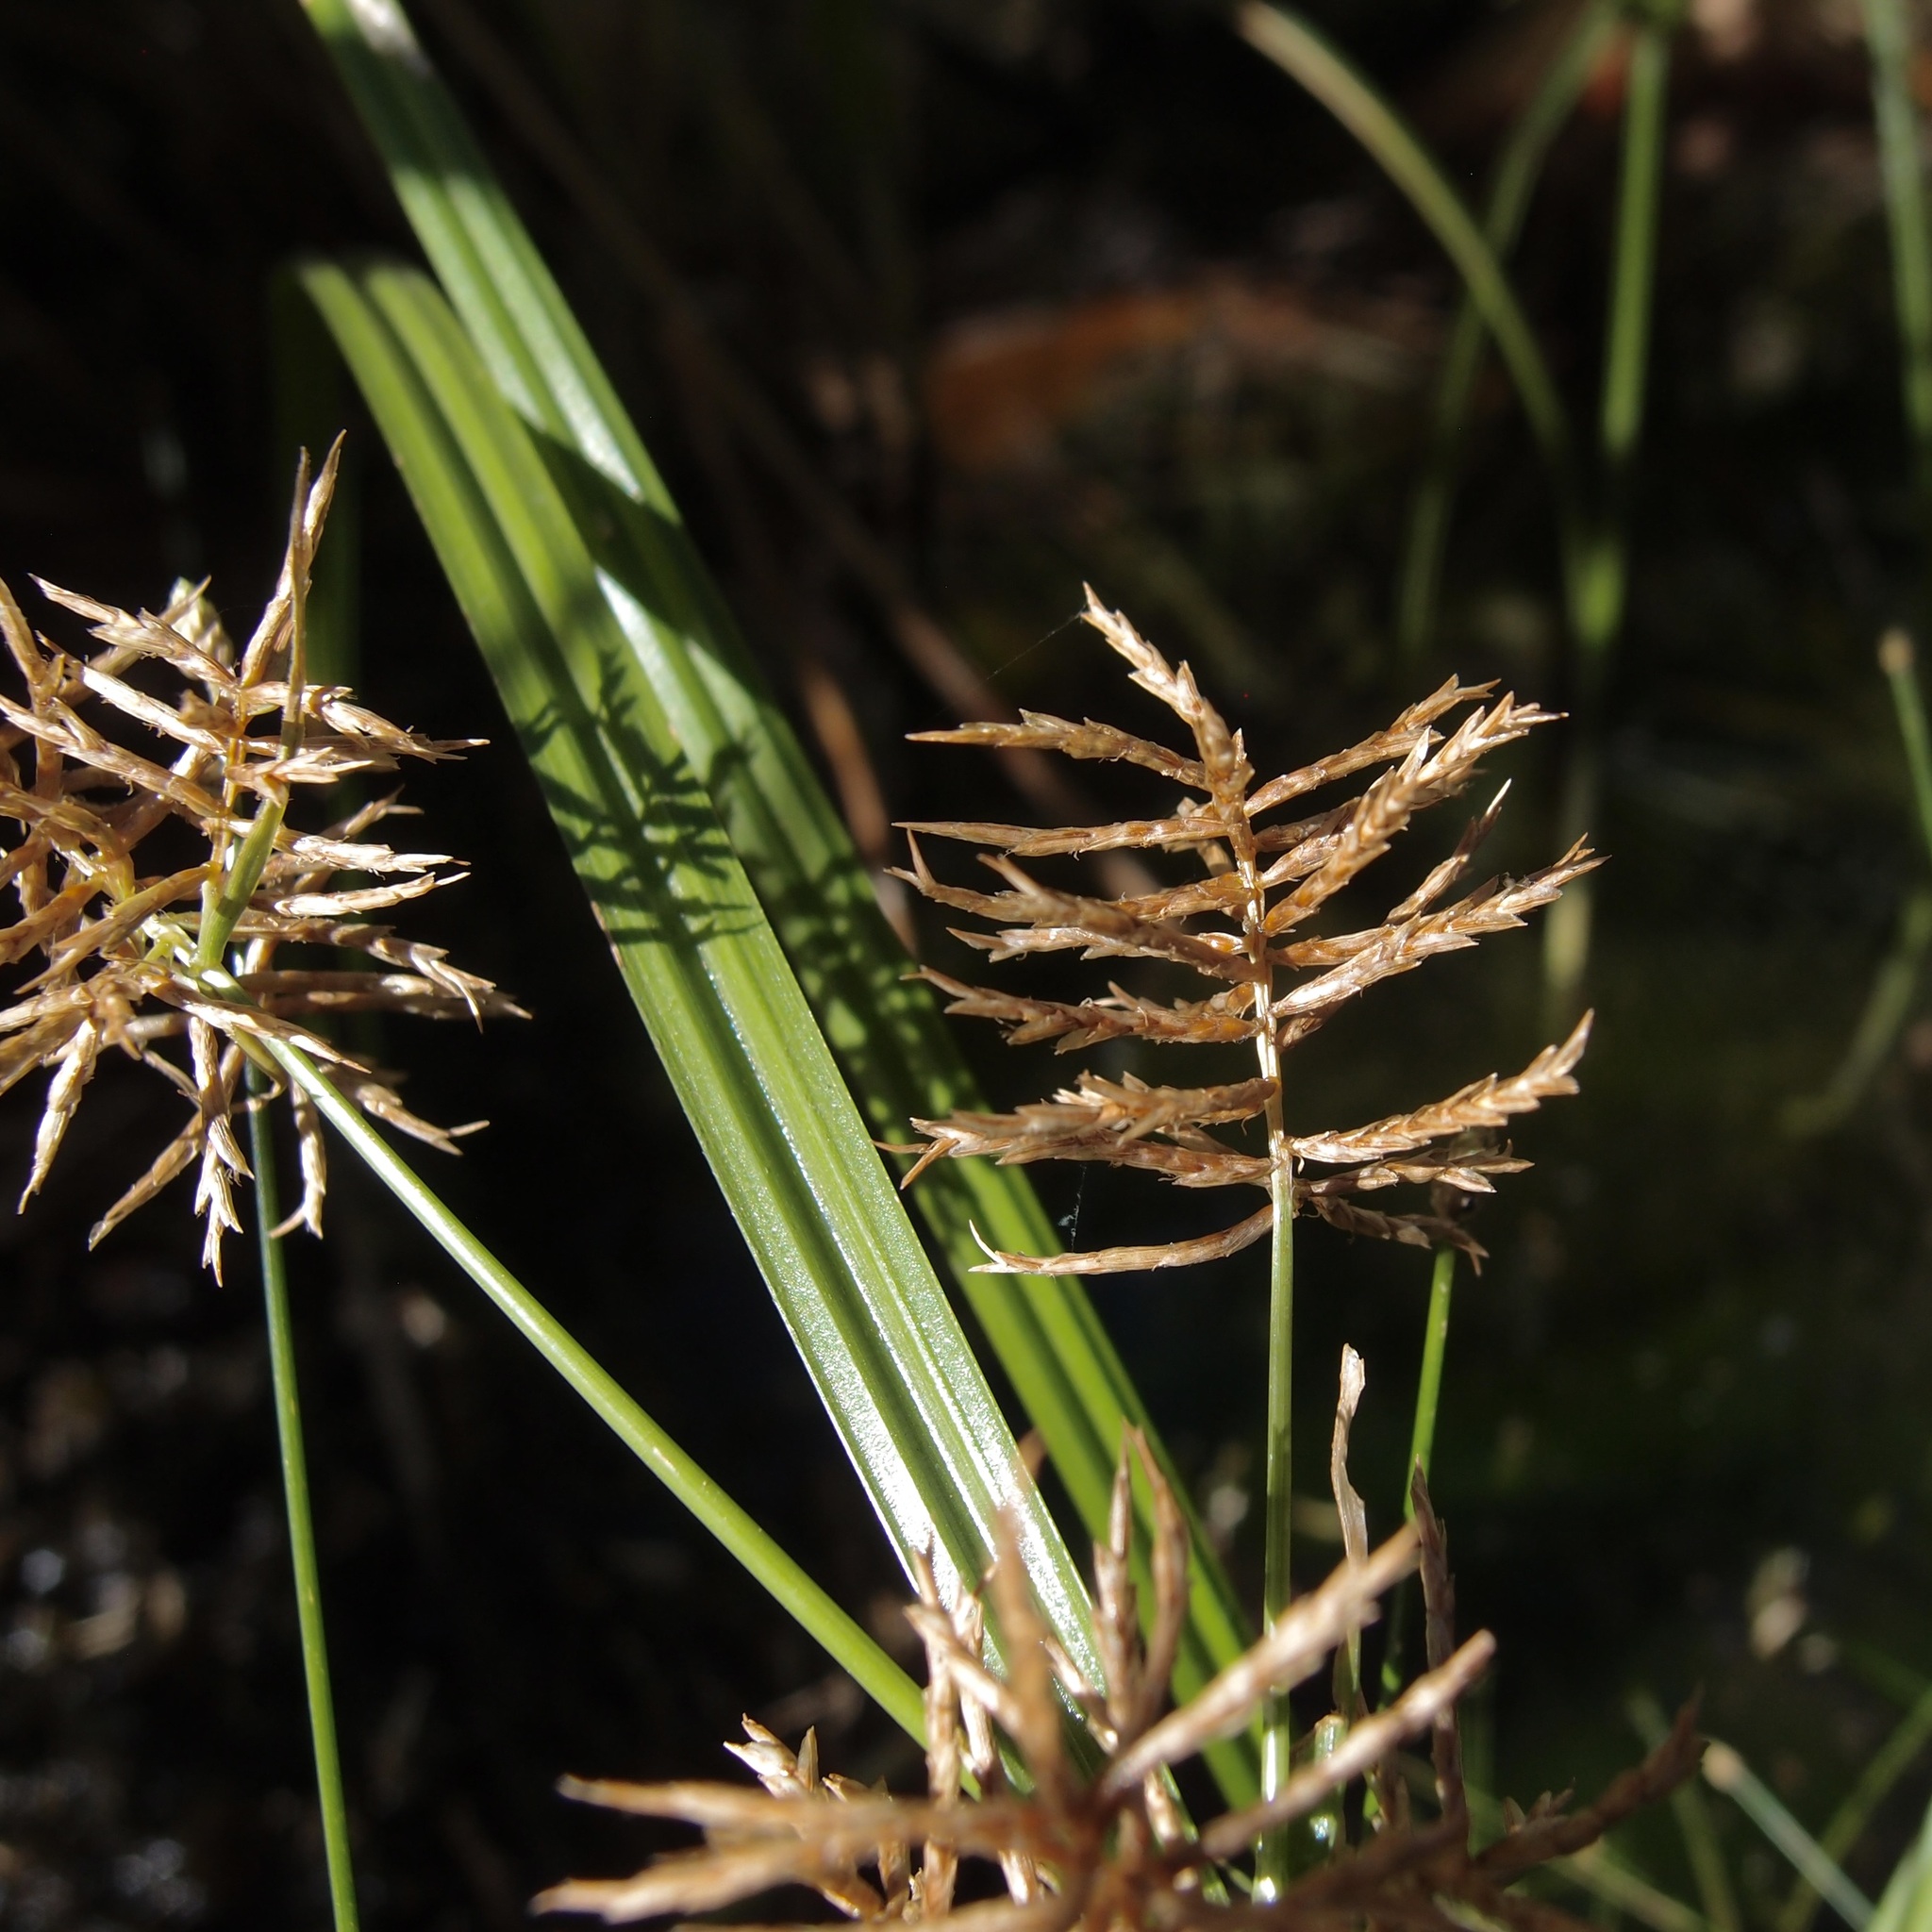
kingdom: Plantae
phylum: Tracheophyta
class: Liliopsida
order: Poales
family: Cyperaceae
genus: Cyperus
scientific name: Cyperus odoratus
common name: Fragrant flatsedge
